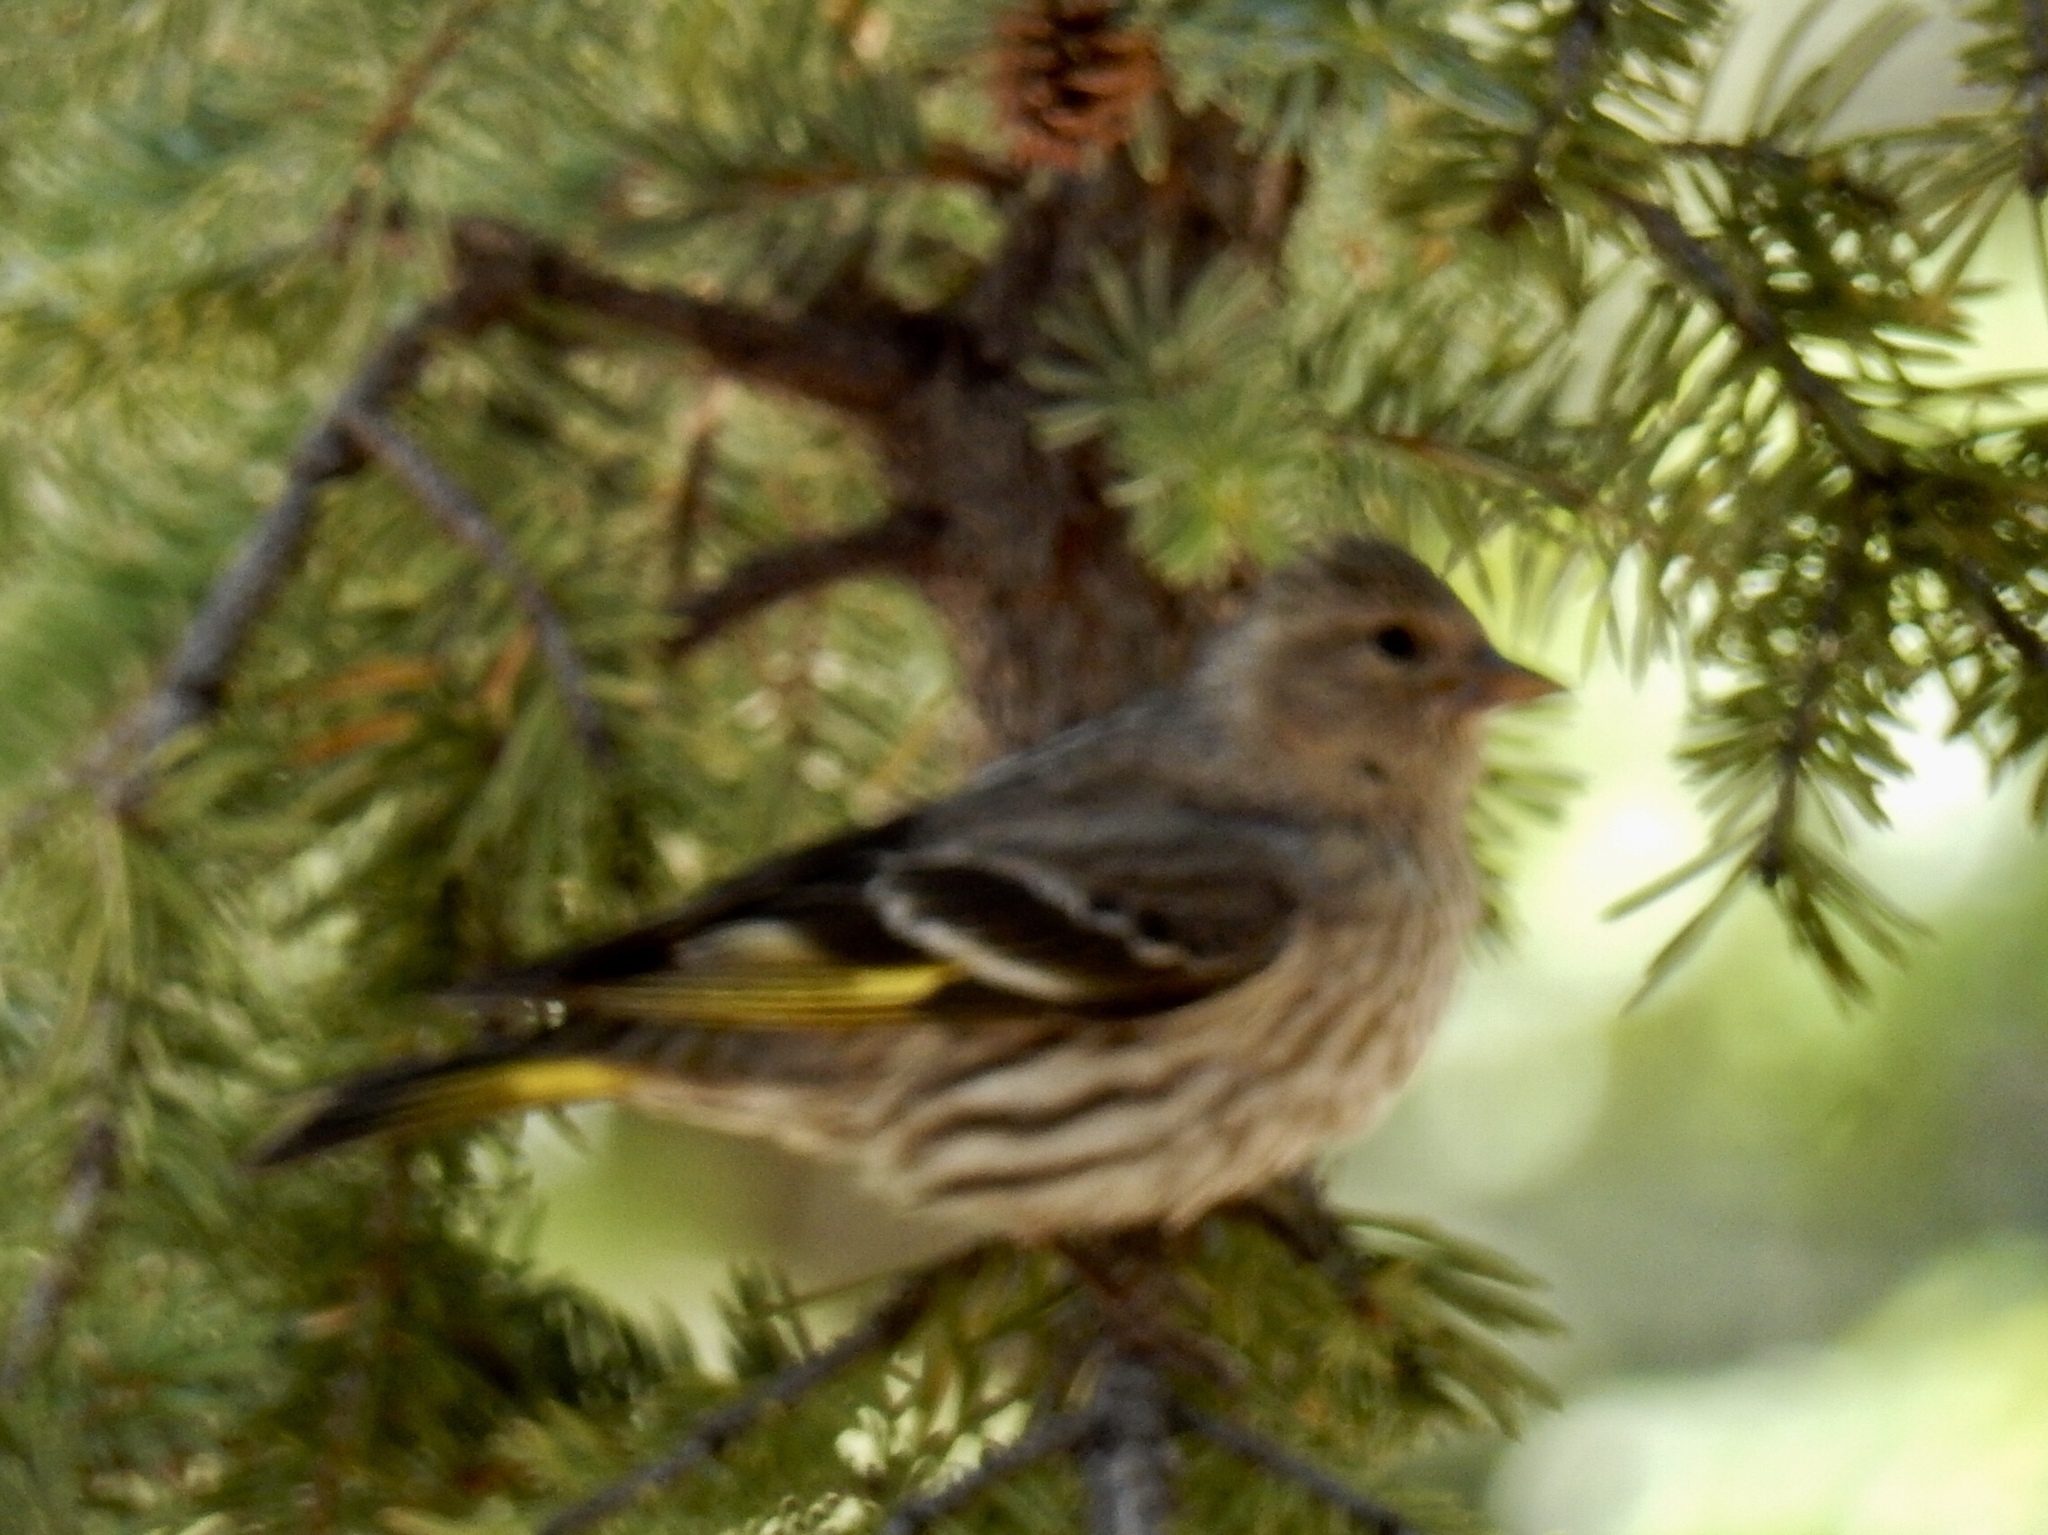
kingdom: Animalia
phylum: Chordata
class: Aves
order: Passeriformes
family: Fringillidae
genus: Spinus
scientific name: Spinus pinus
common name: Pine siskin
